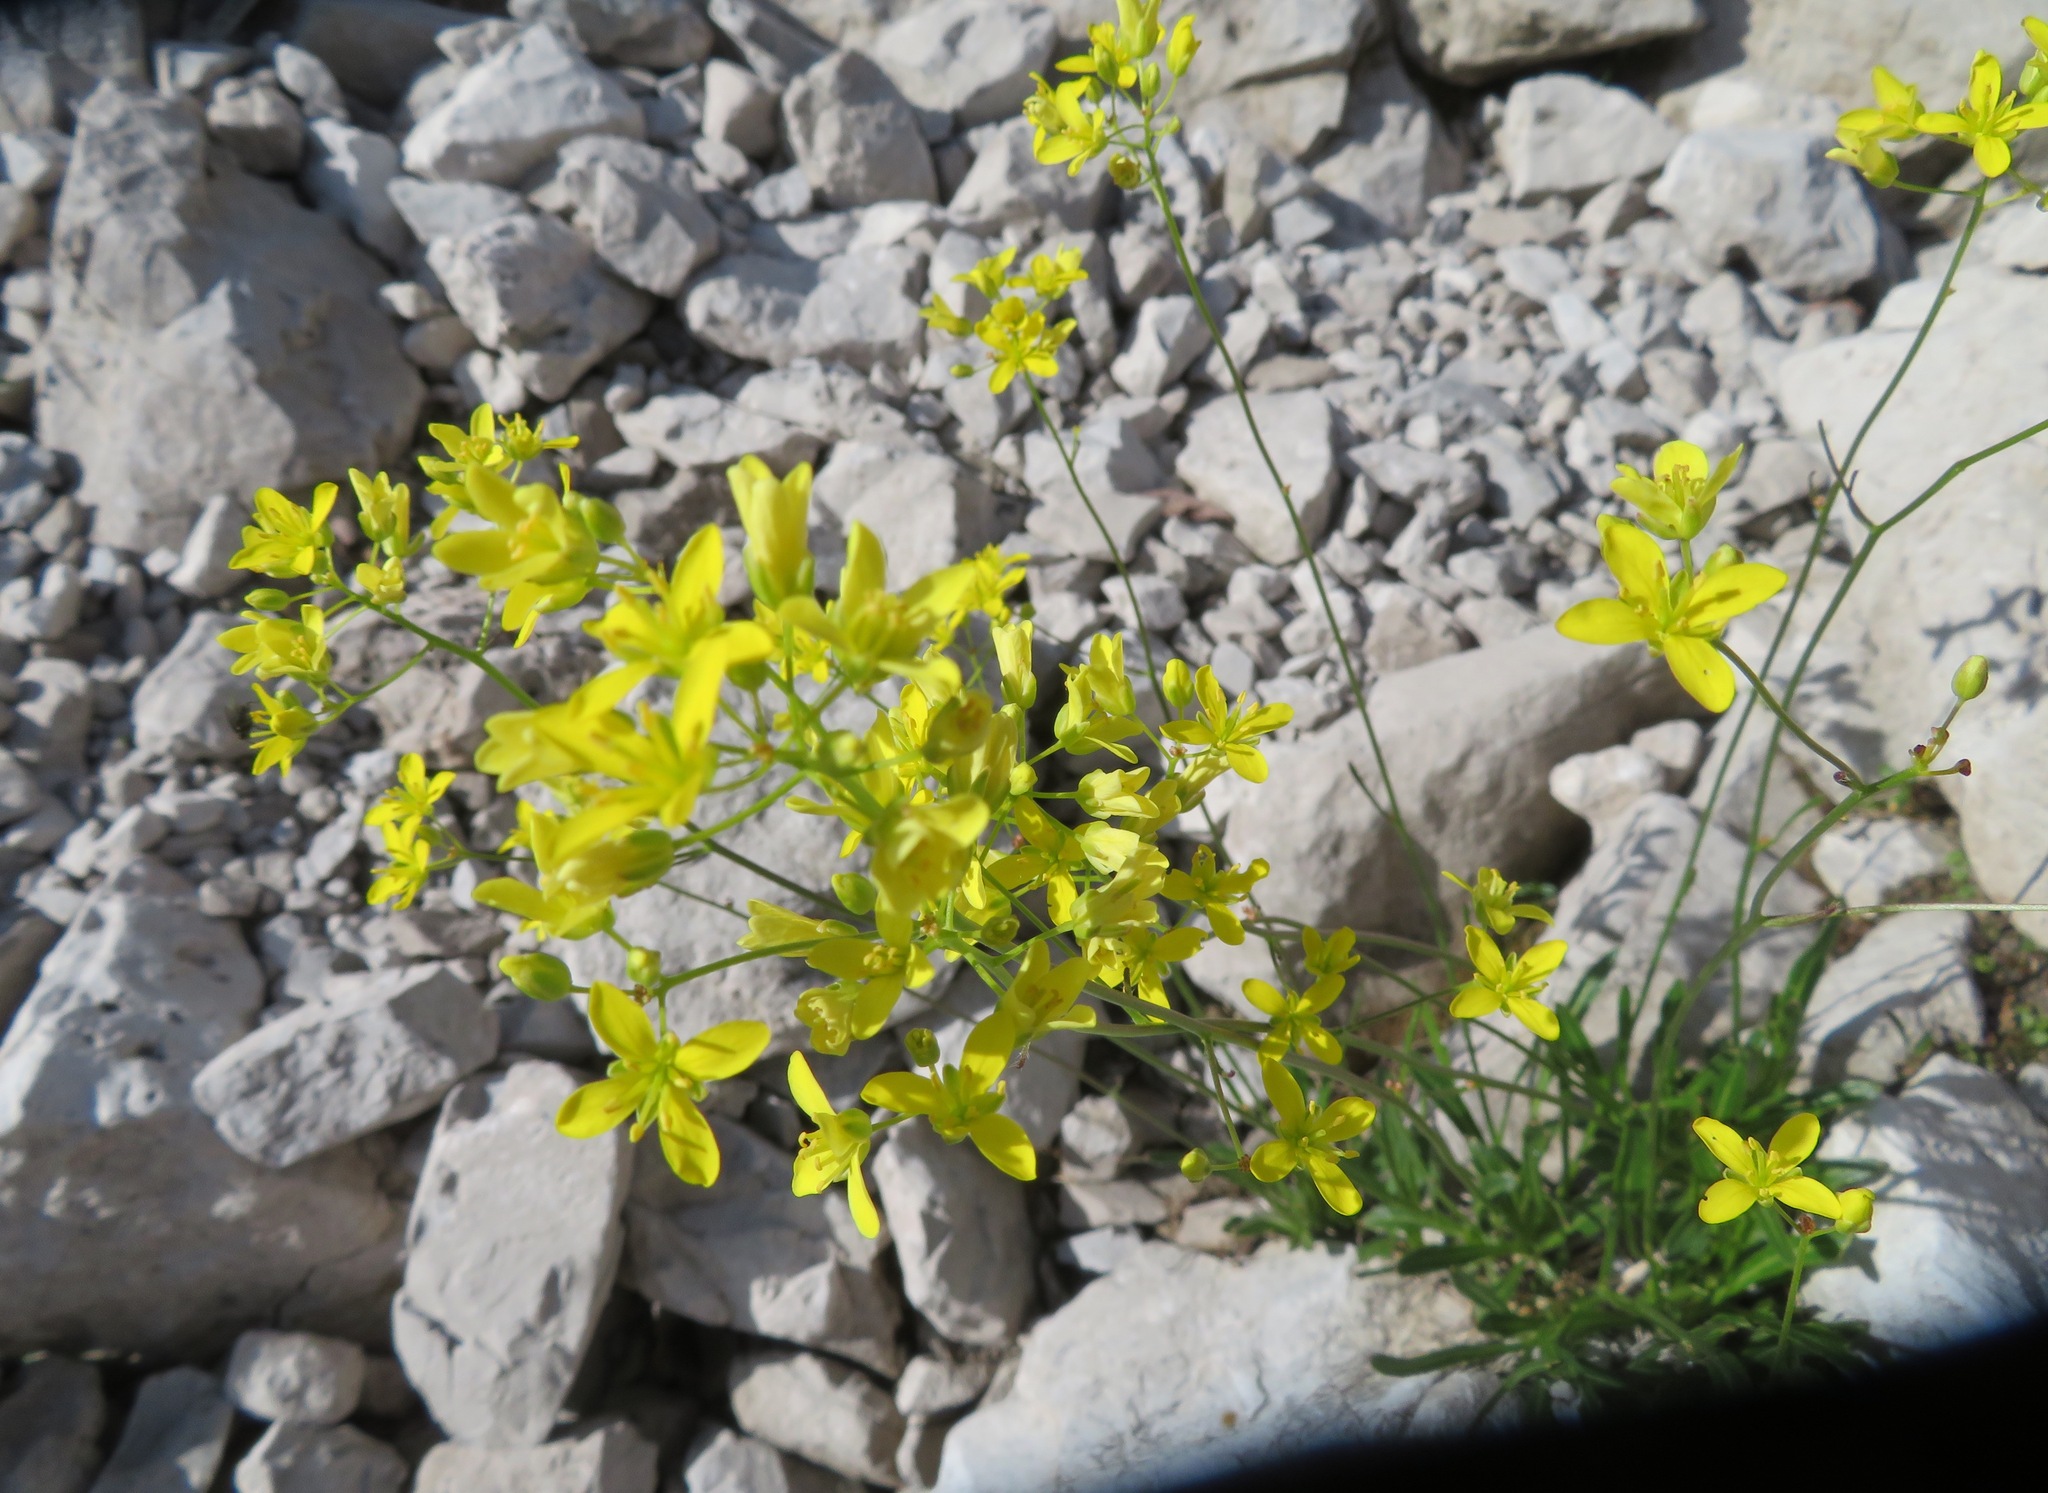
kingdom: Plantae
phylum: Tracheophyta
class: Magnoliopsida
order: Brassicales
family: Brassicaceae
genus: Biscutella
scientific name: Biscutella laevigata
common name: Buckler mustard
